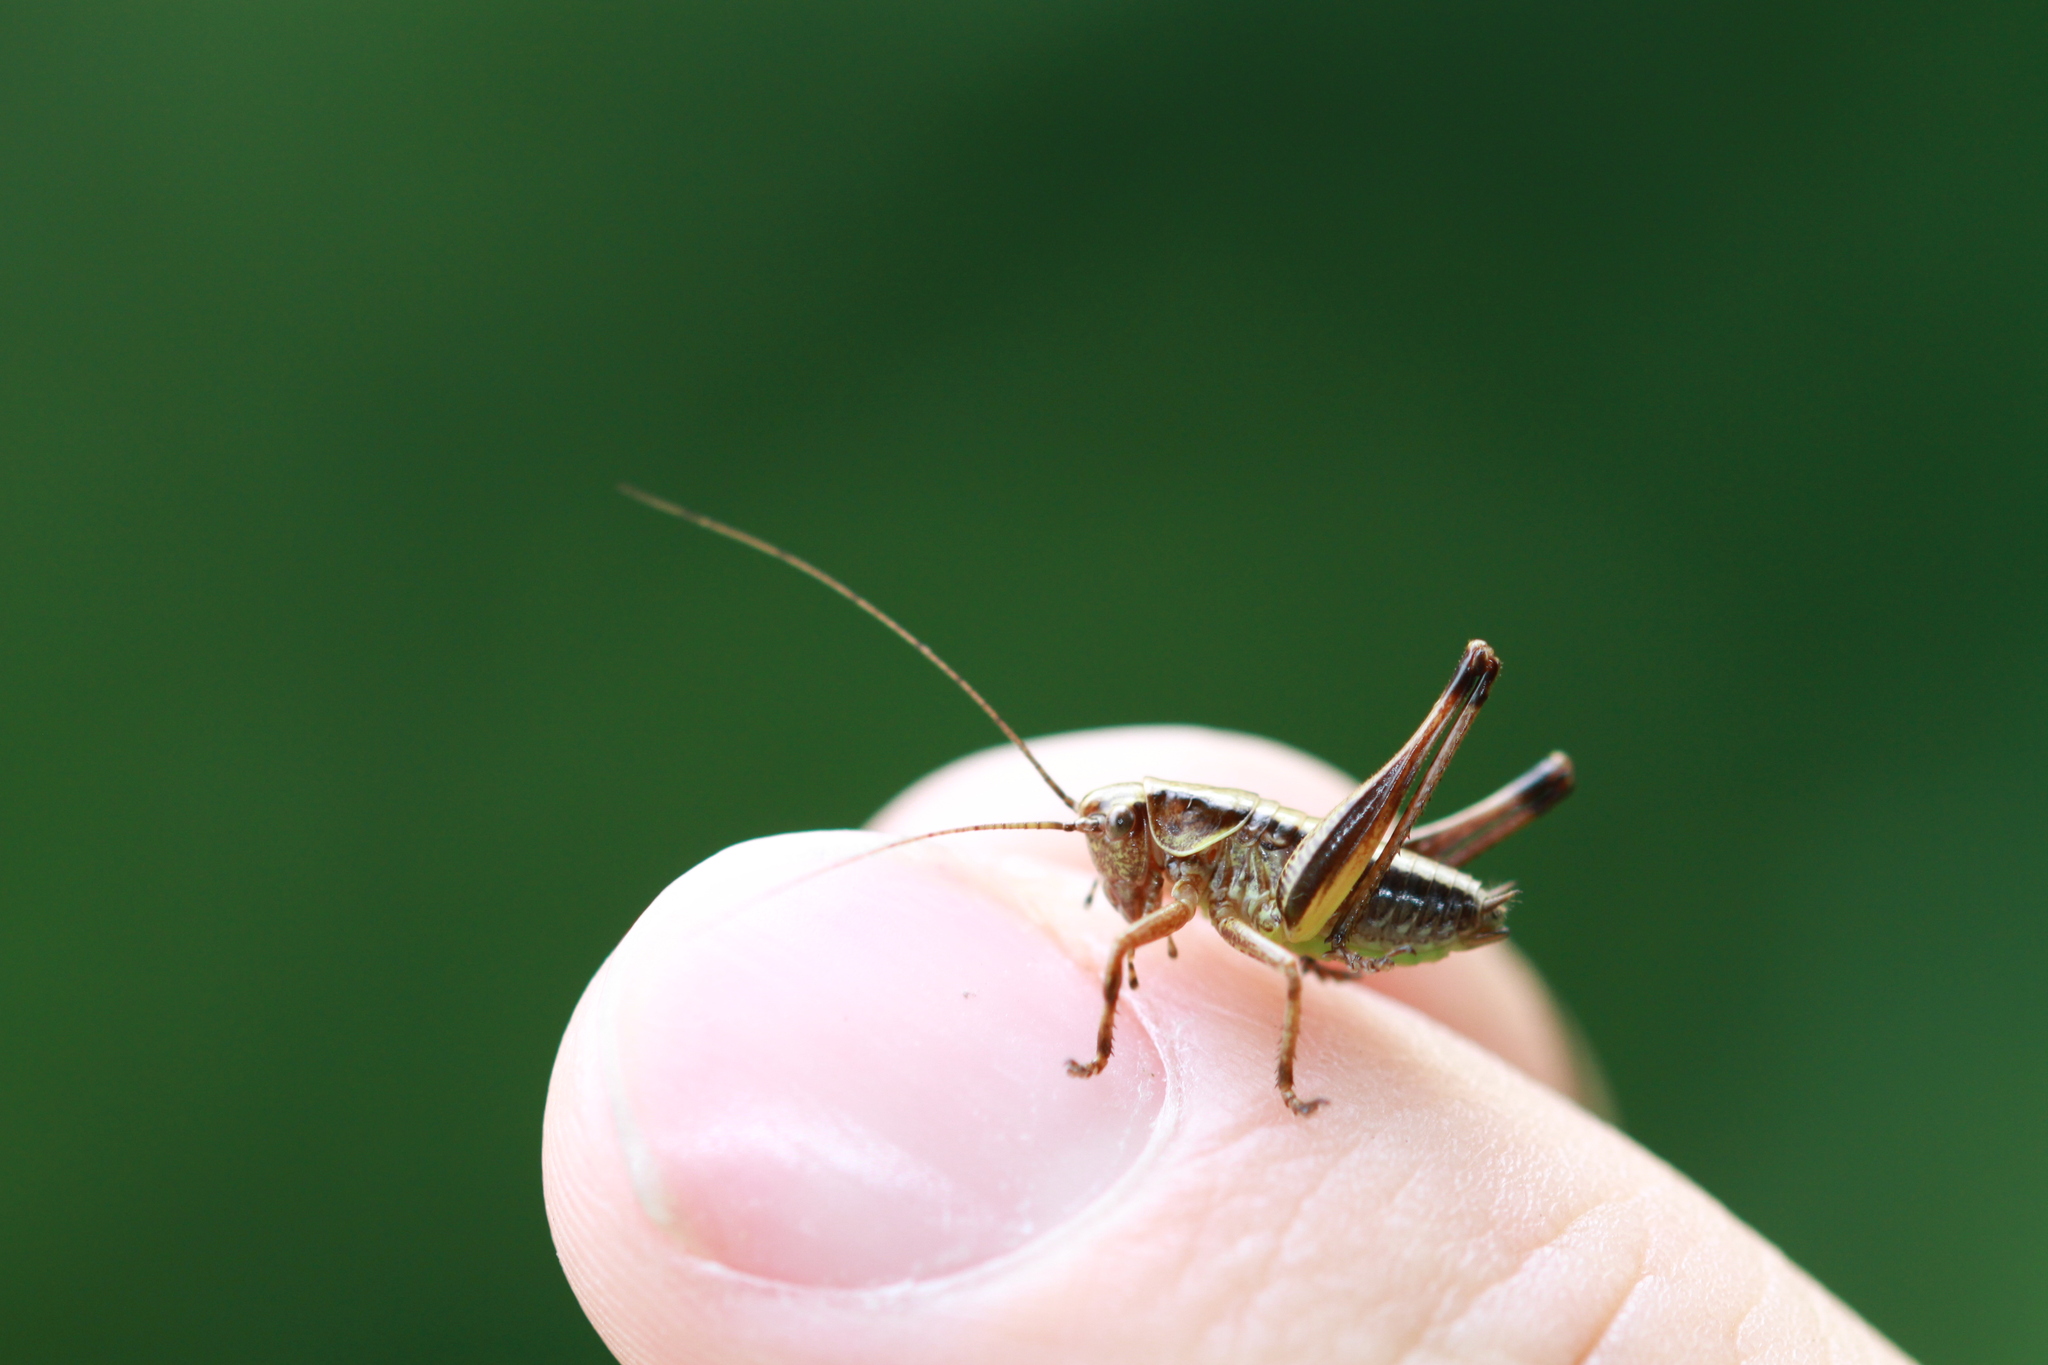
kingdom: Animalia
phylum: Arthropoda
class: Insecta
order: Orthoptera
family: Tettigoniidae
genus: Pholidoptera
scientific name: Pholidoptera griseoaptera
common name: Dark bush-cricket
